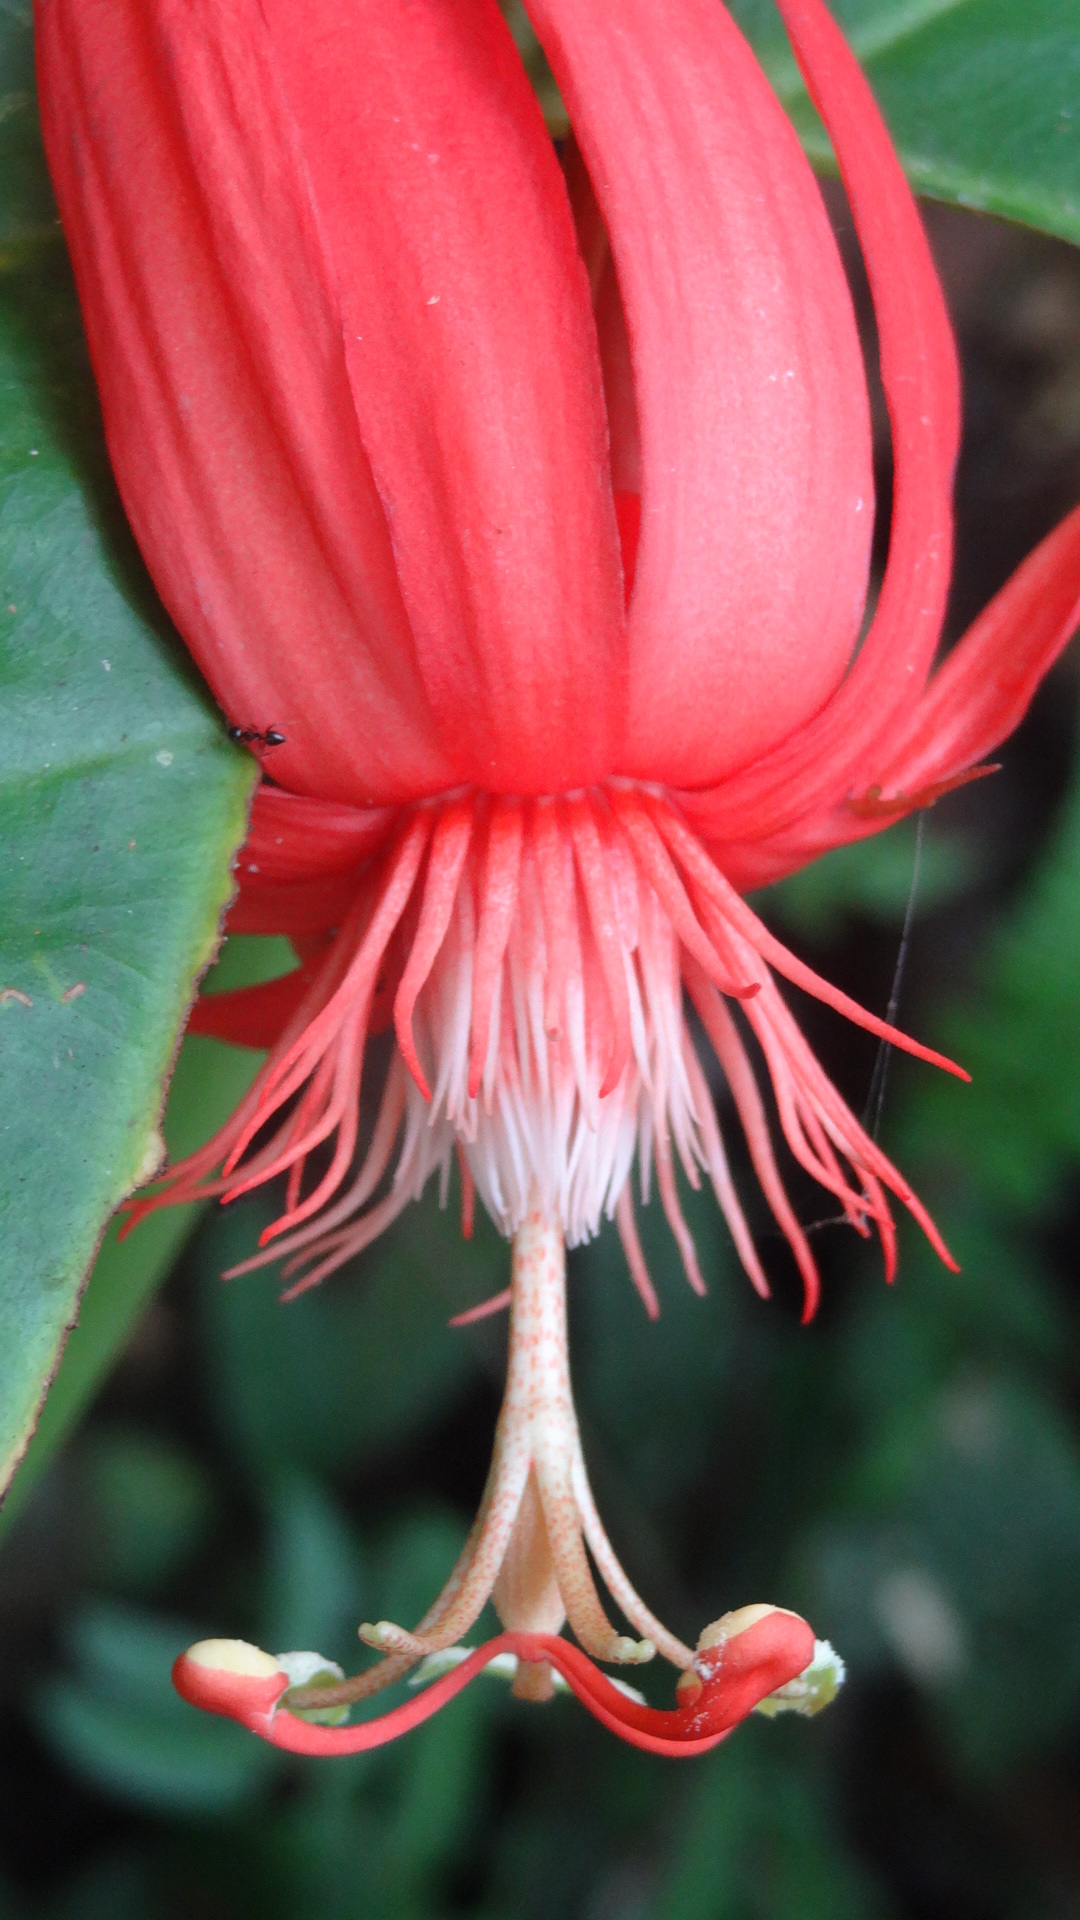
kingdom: Plantae
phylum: Tracheophyta
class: Magnoliopsida
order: Malpighiales
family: Passifloraceae
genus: Passiflora
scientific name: Passiflora vitifolia
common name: Perfumed passionflower
